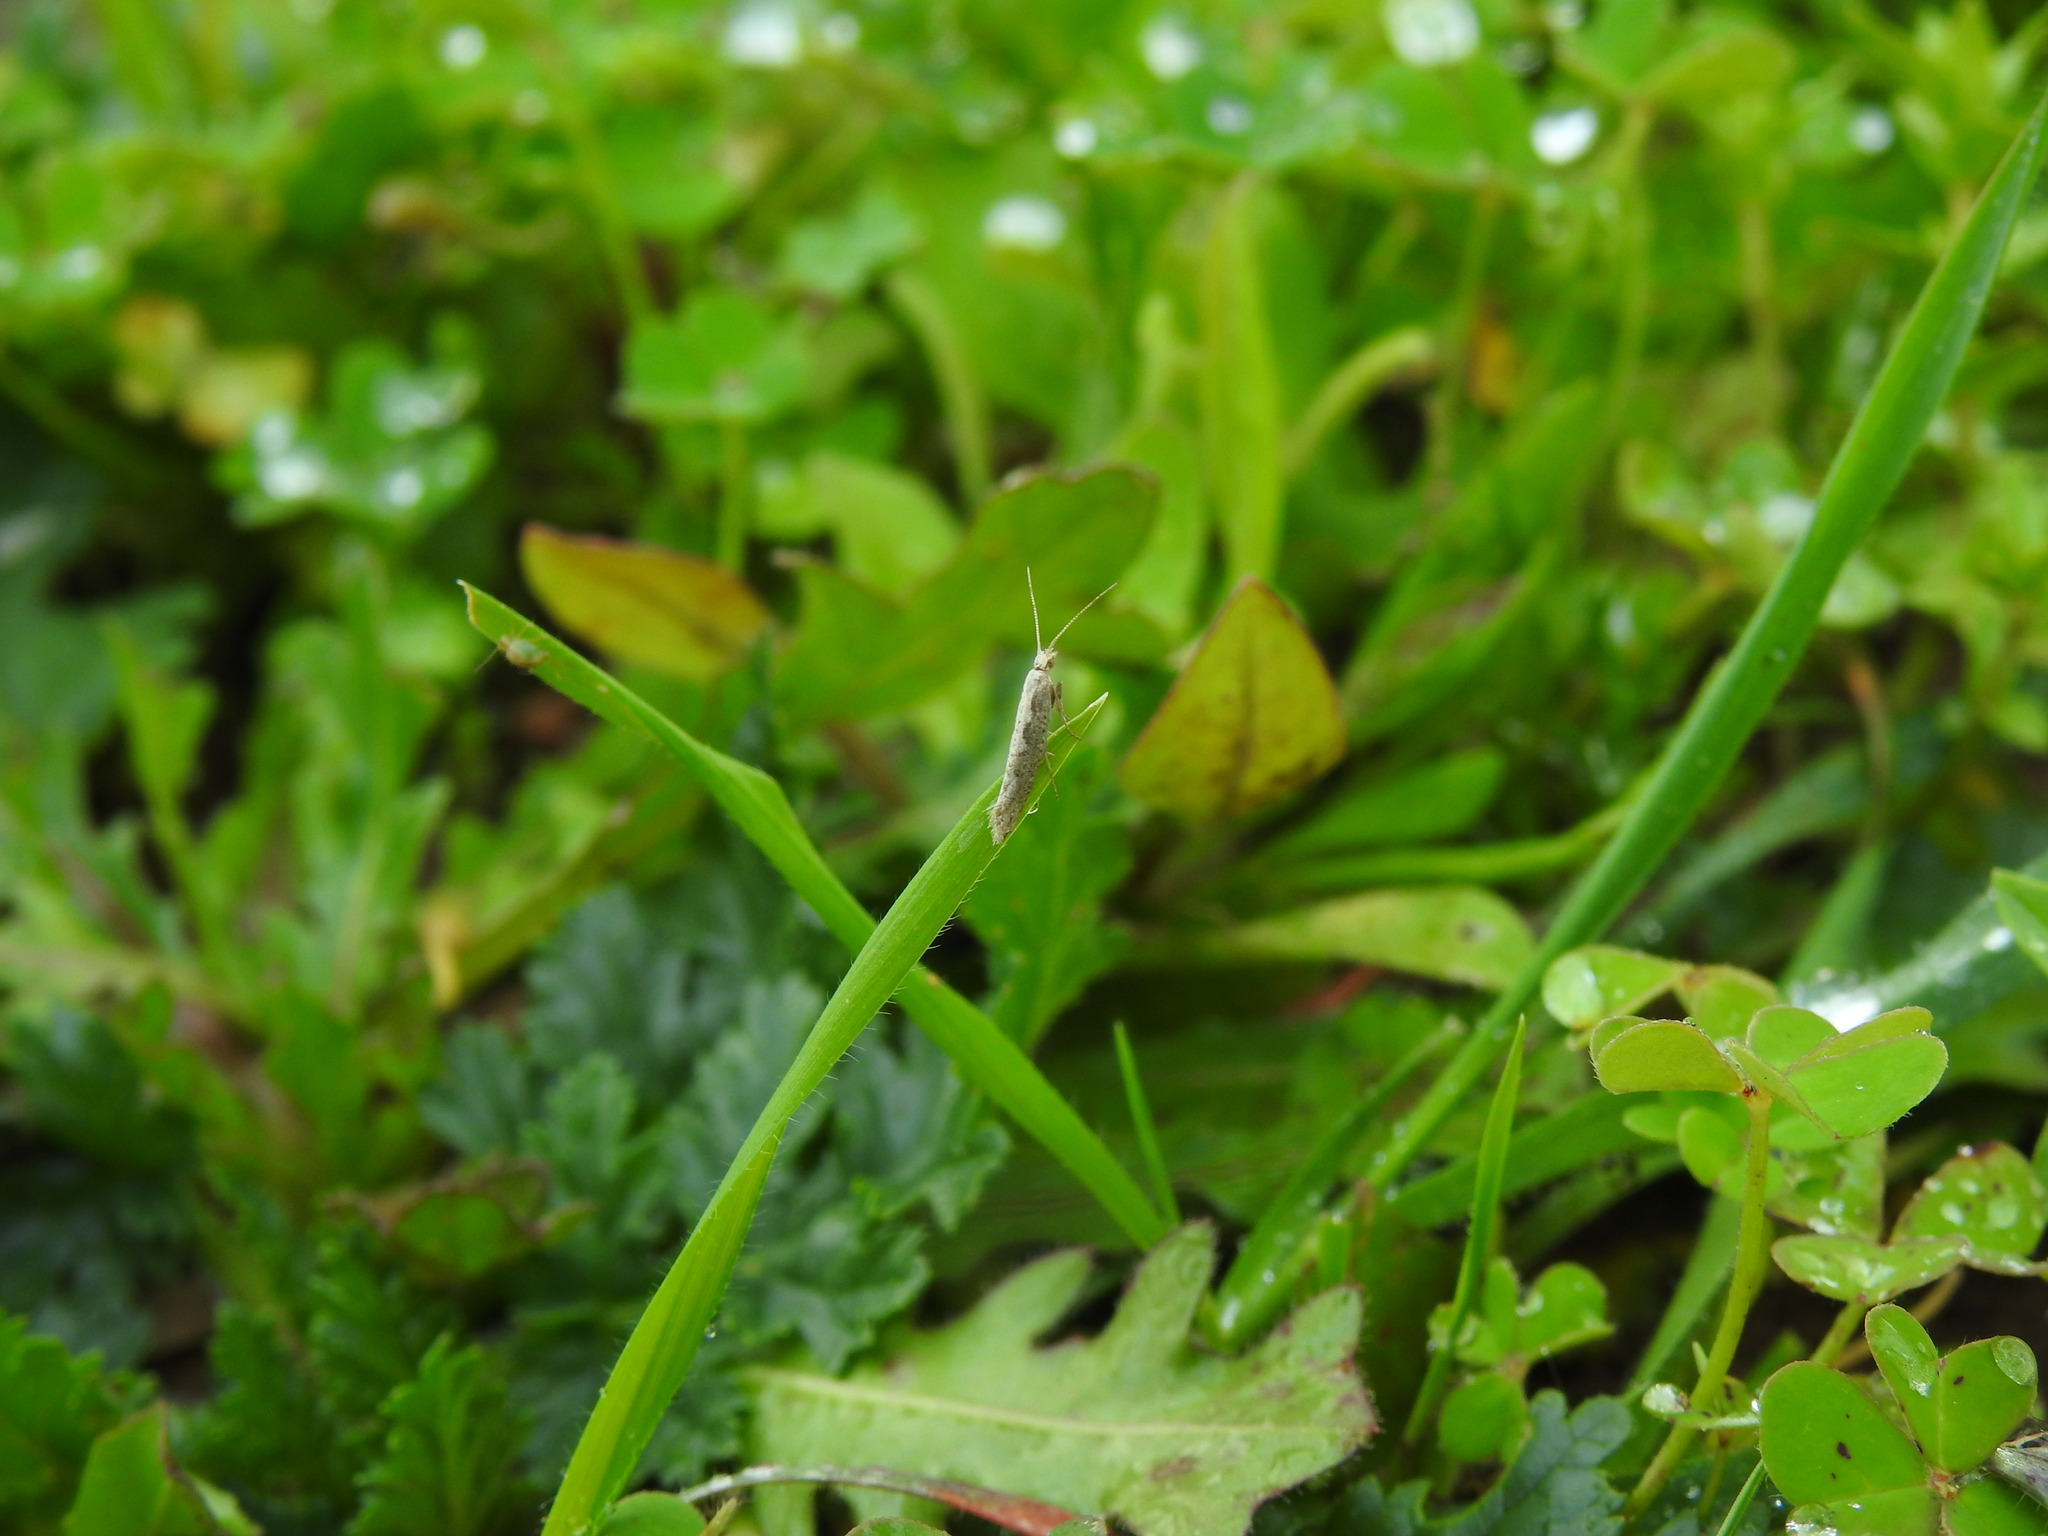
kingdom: Animalia
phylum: Arthropoda
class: Insecta
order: Lepidoptera
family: Plutellidae
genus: Plutella
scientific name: Plutella xylostella
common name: Diamond-back moth
